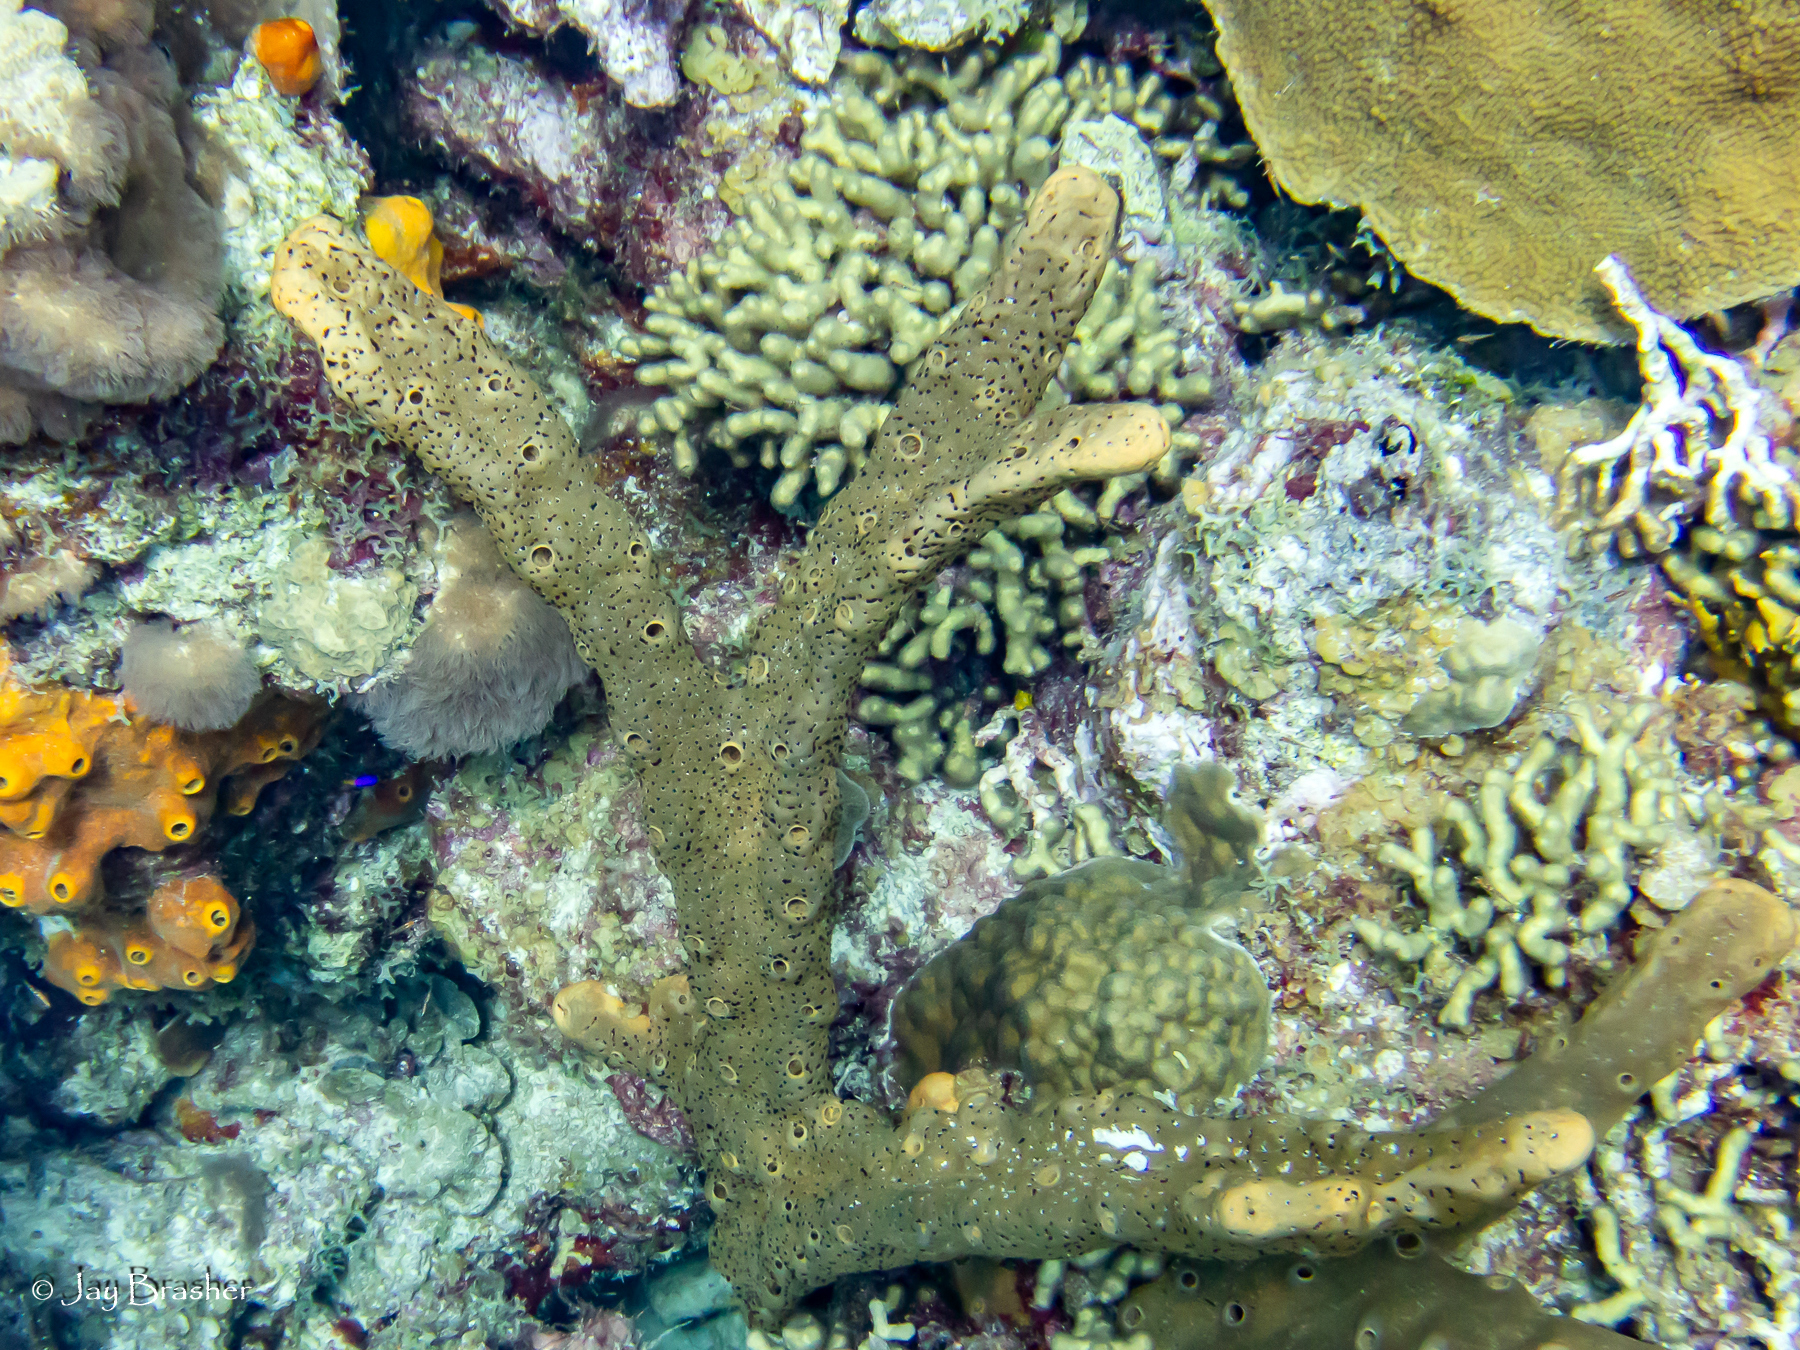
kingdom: Animalia
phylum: Cnidaria
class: Anthozoa
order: Scleractinia
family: Poritidae
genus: Porites
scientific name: Porites astreoides
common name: Mustard hill coral
